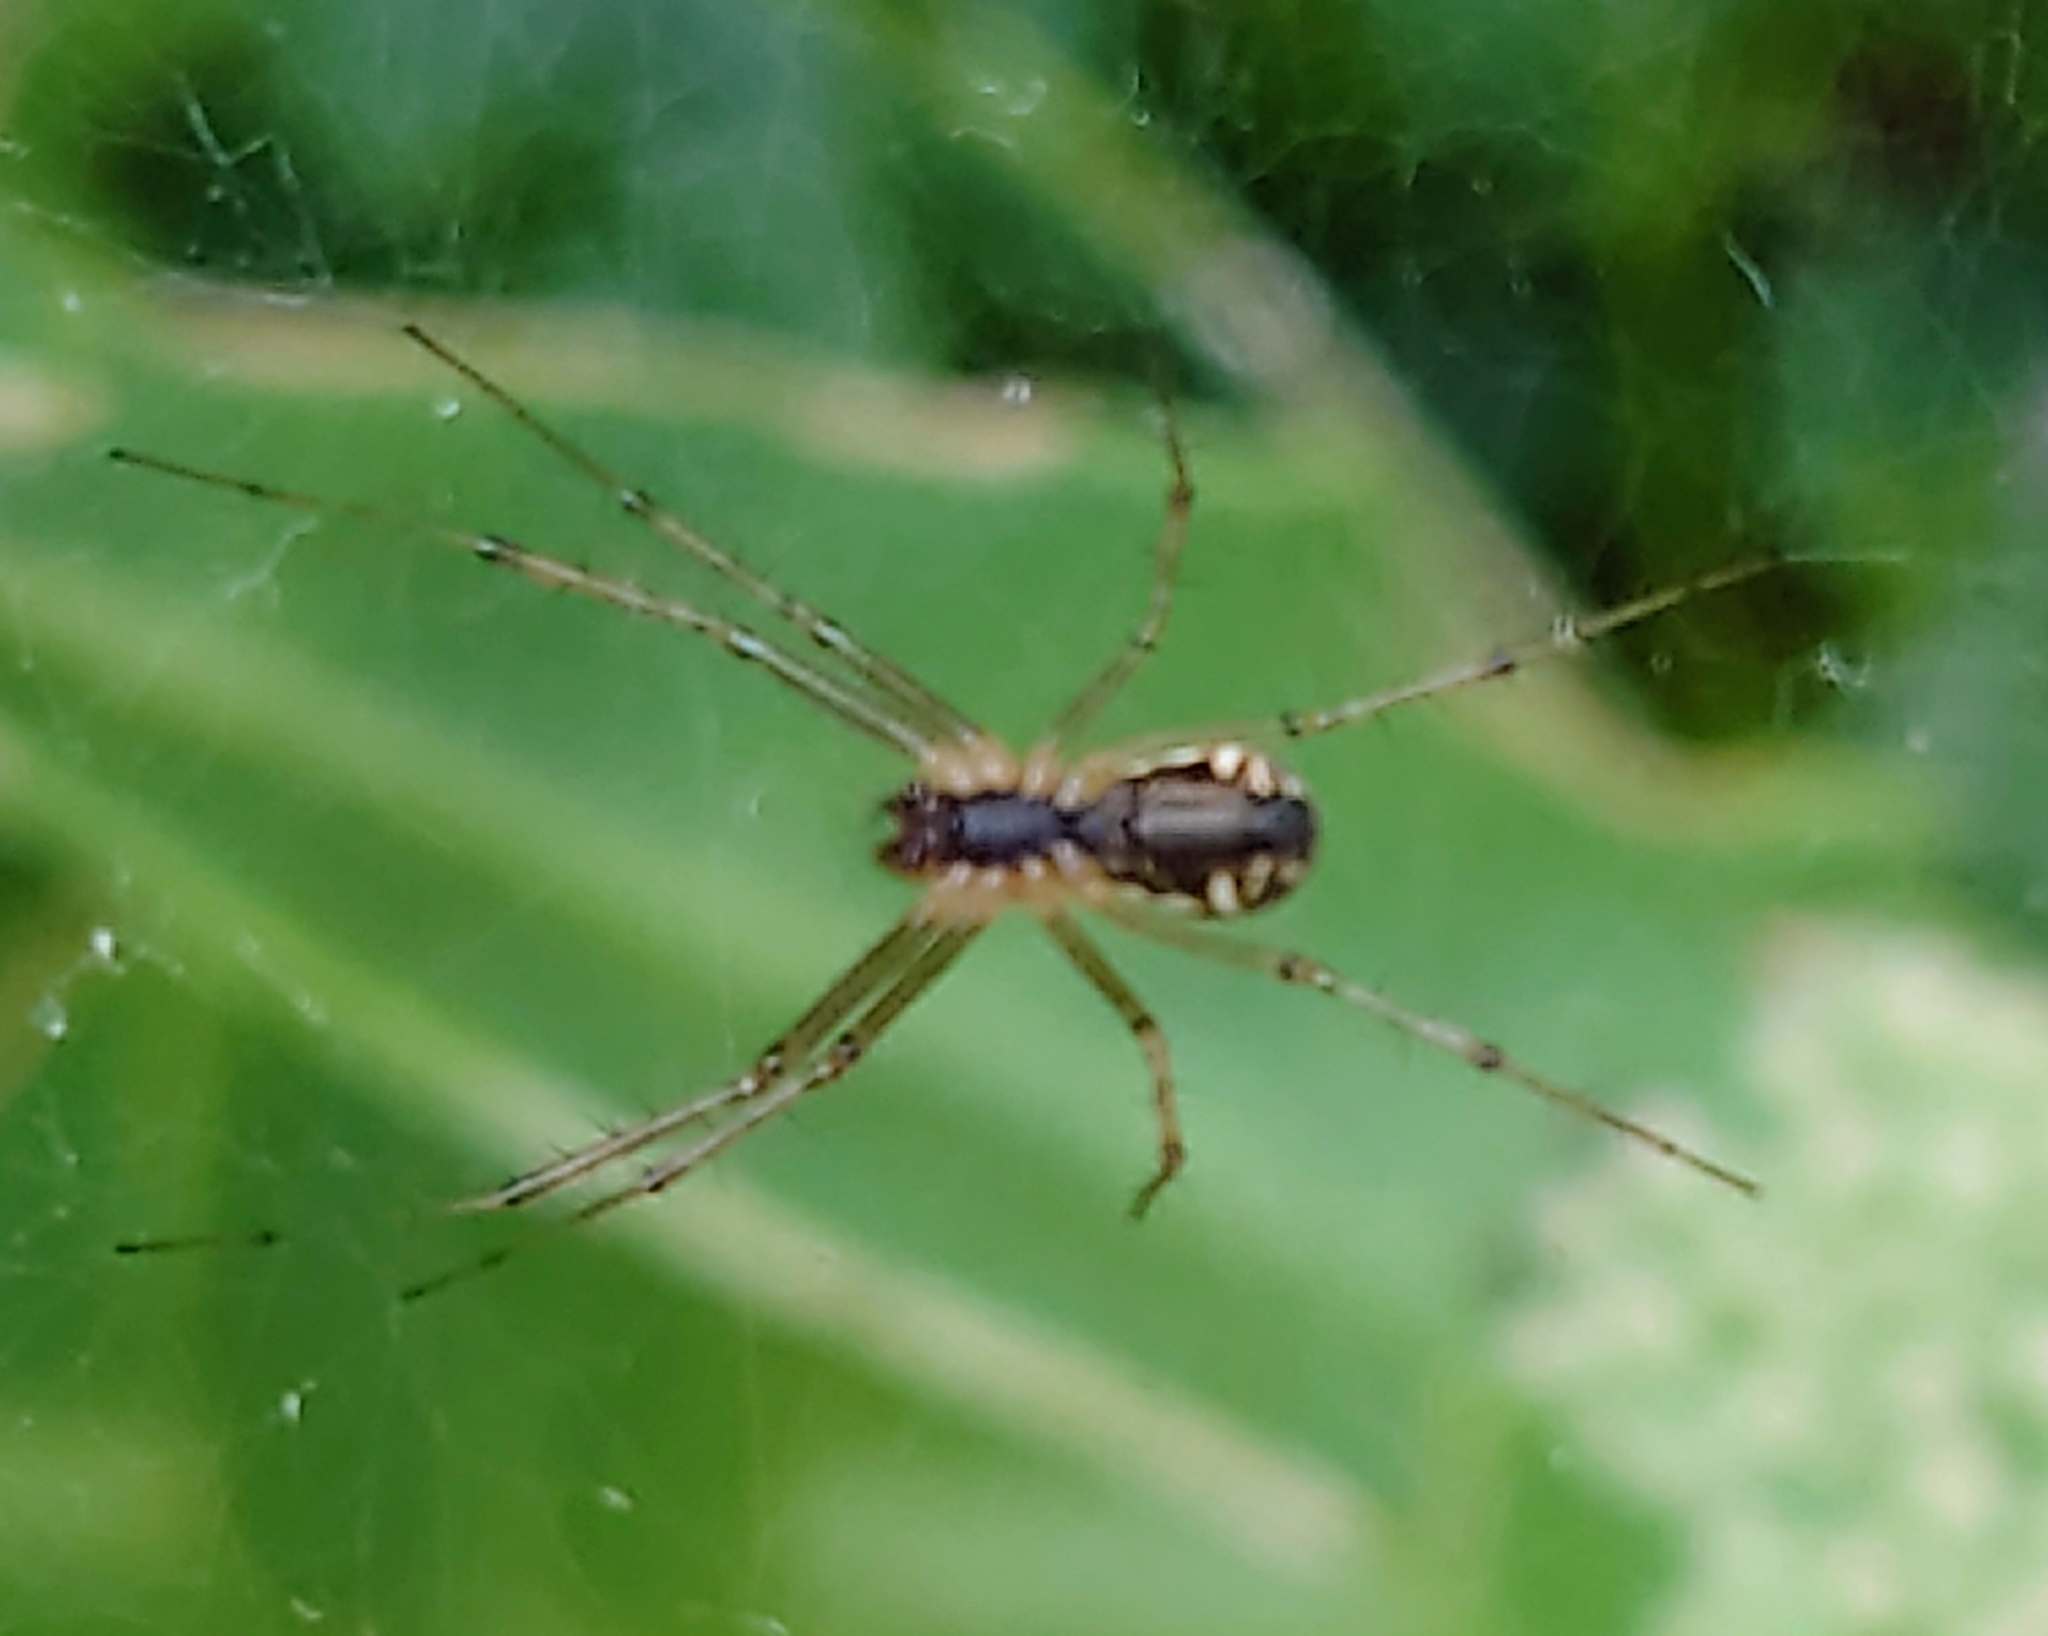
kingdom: Animalia
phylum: Arthropoda
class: Arachnida
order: Araneae
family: Linyphiidae
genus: Linyphia
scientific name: Linyphia triangularis
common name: Money spider
